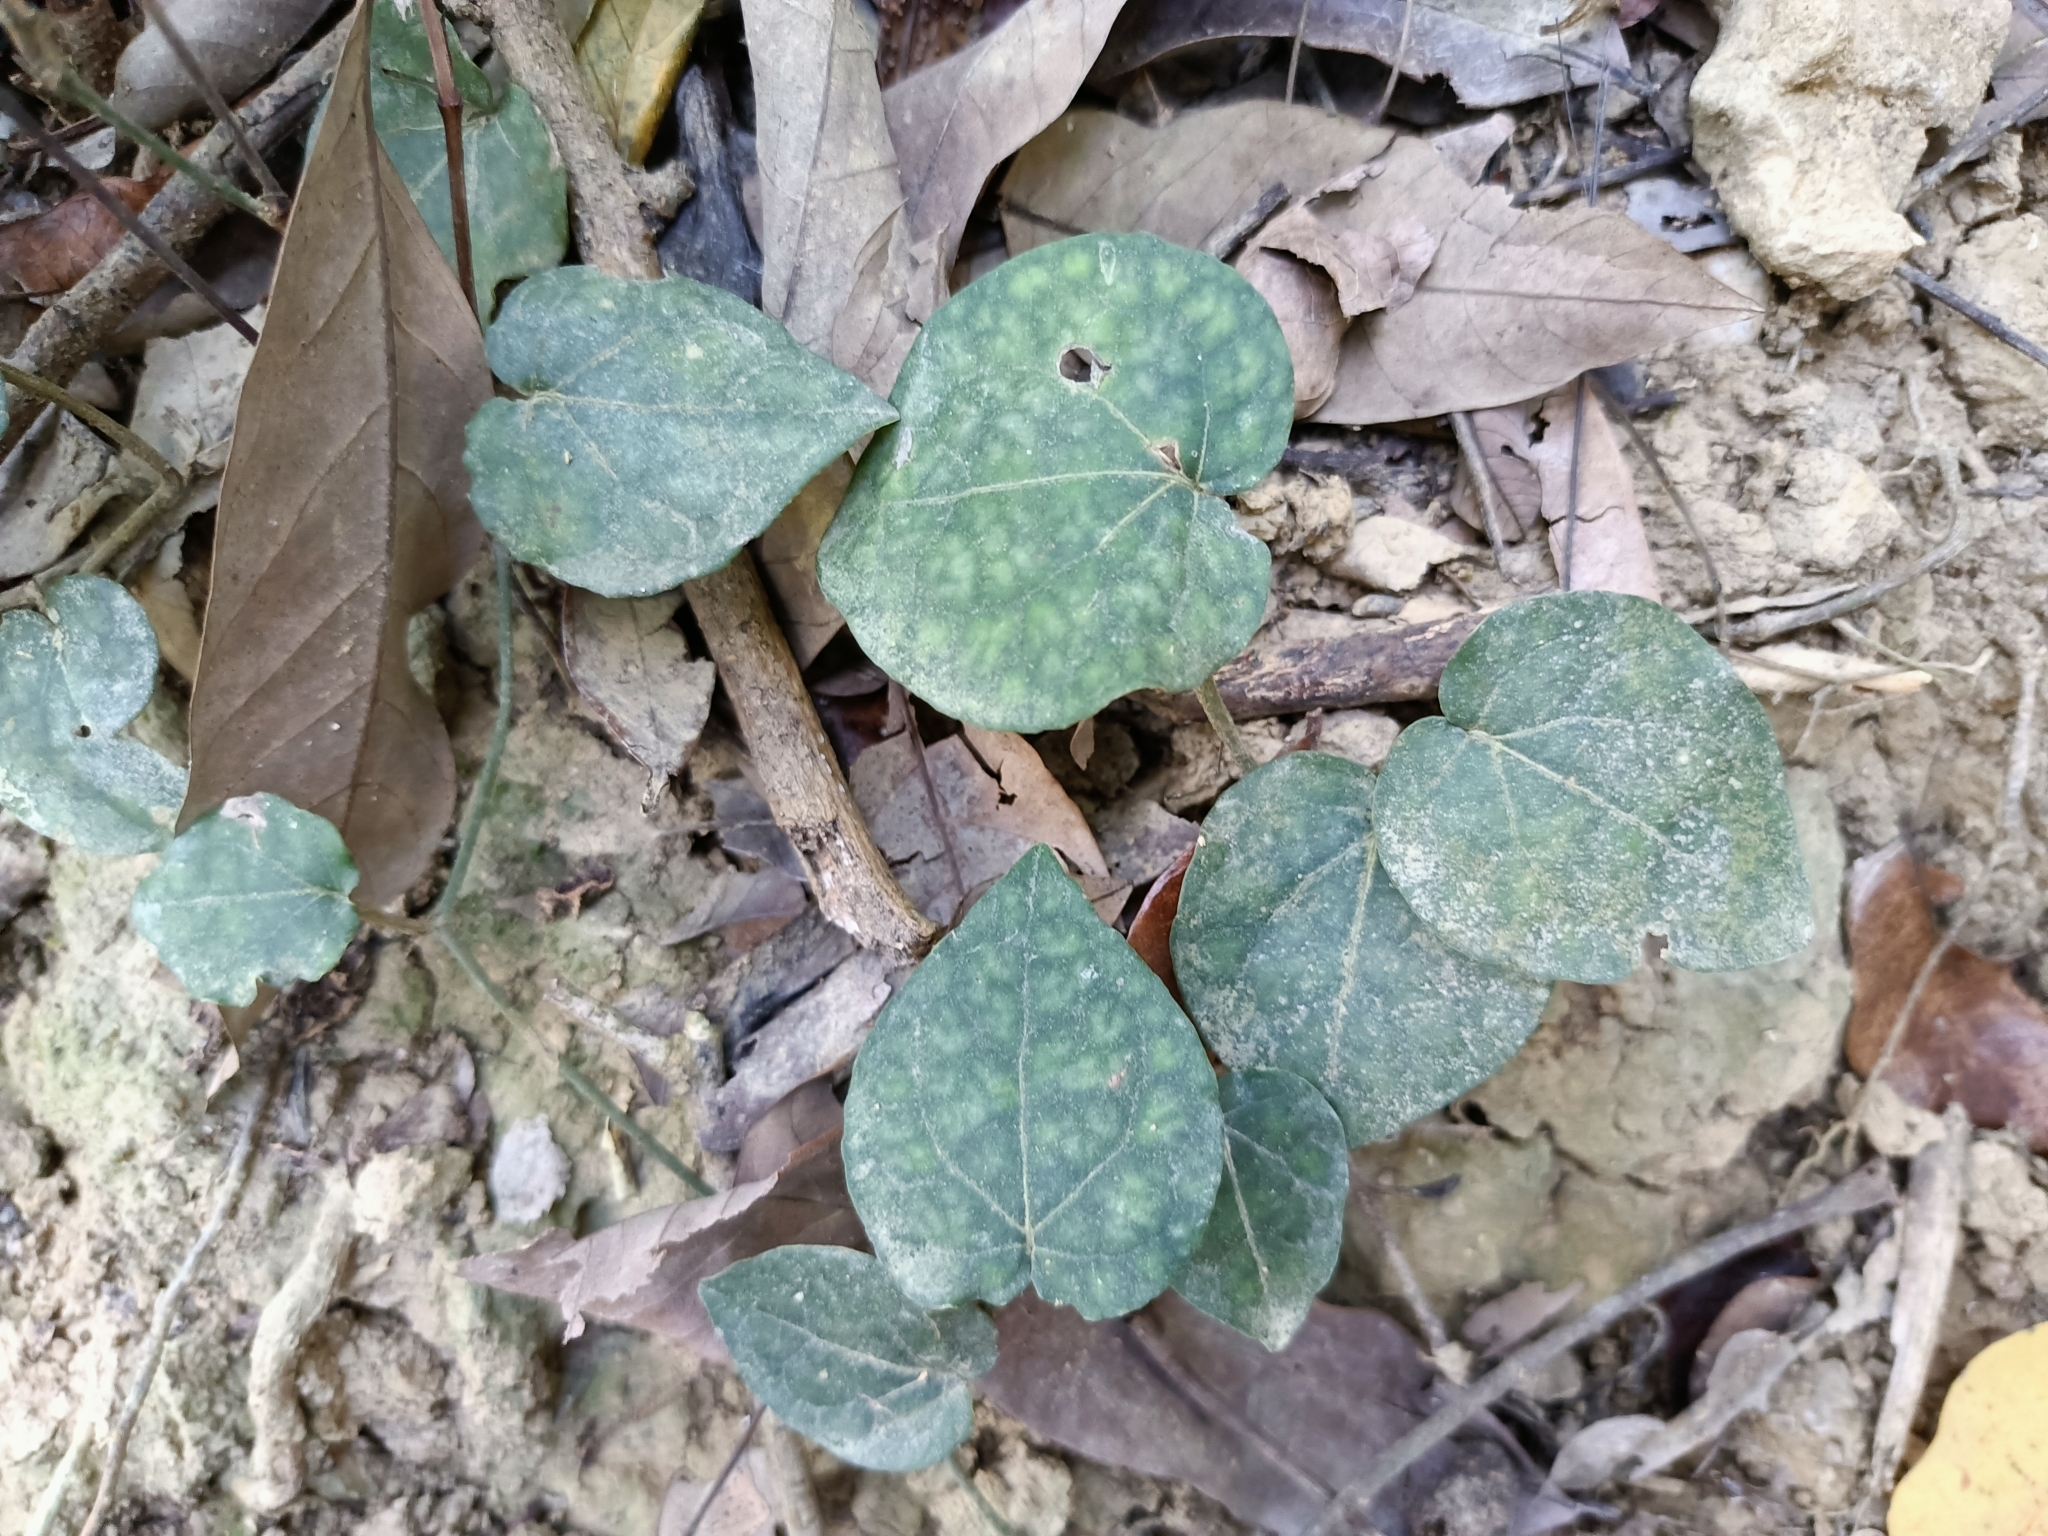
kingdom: Plantae
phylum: Tracheophyta
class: Magnoliopsida
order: Piperales
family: Piperaceae
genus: Piper
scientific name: Piper kadsura
